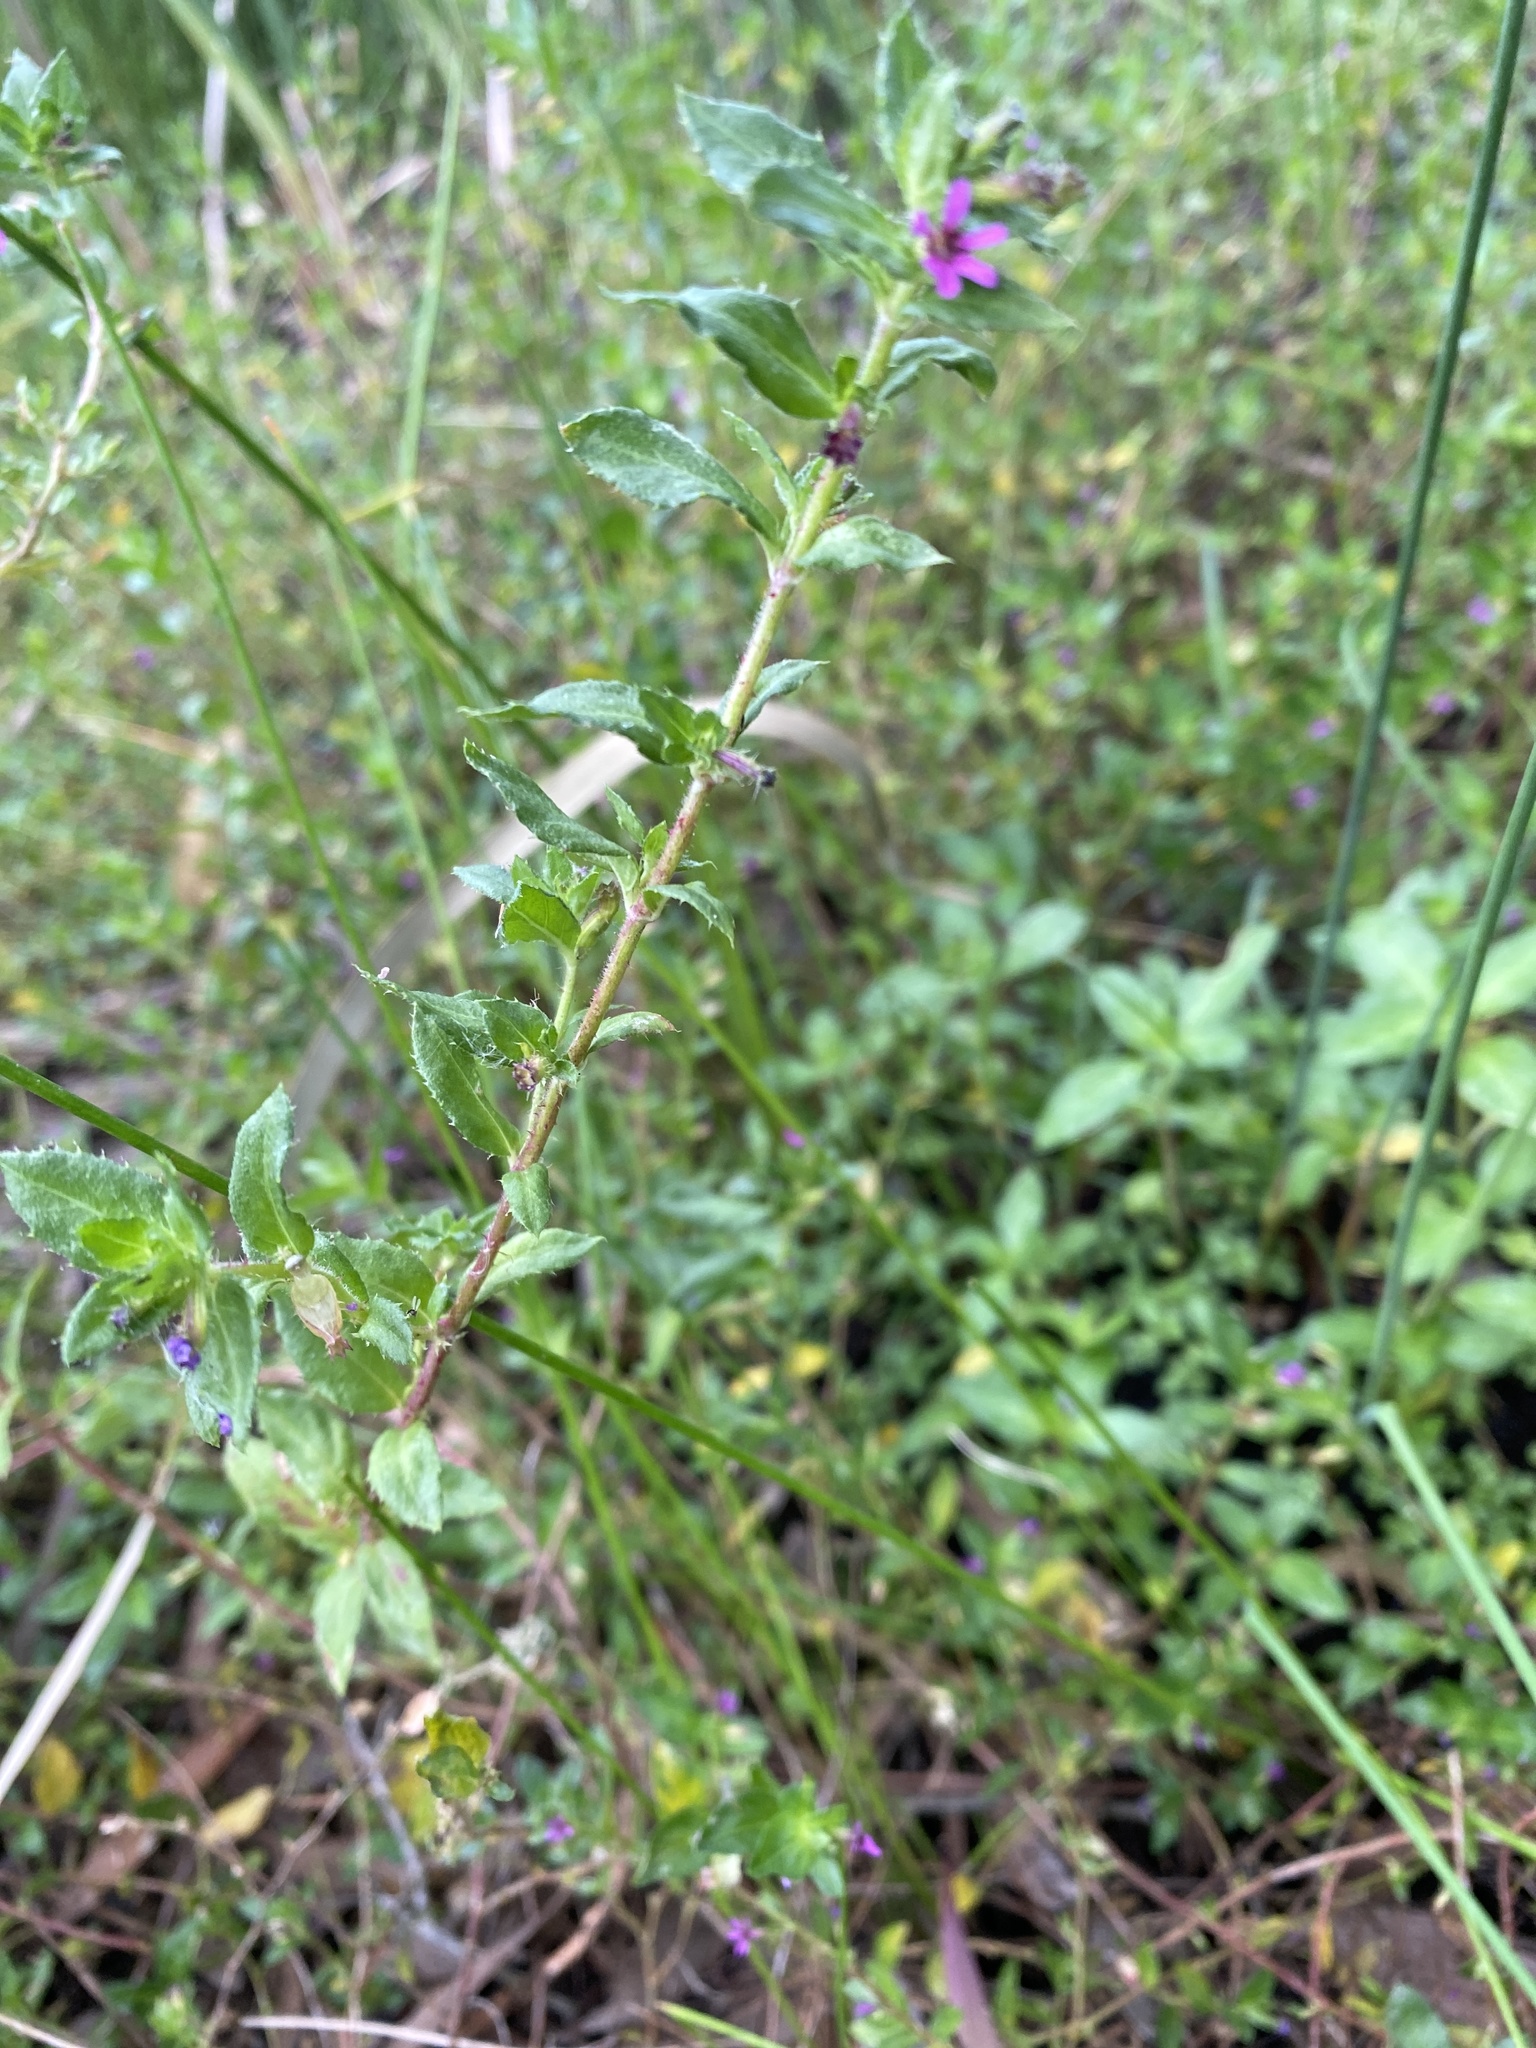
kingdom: Plantae
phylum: Tracheophyta
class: Magnoliopsida
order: Myrtales
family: Lythraceae
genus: Cuphea
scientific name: Cuphea carthagenensis
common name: Colombian waxweed
